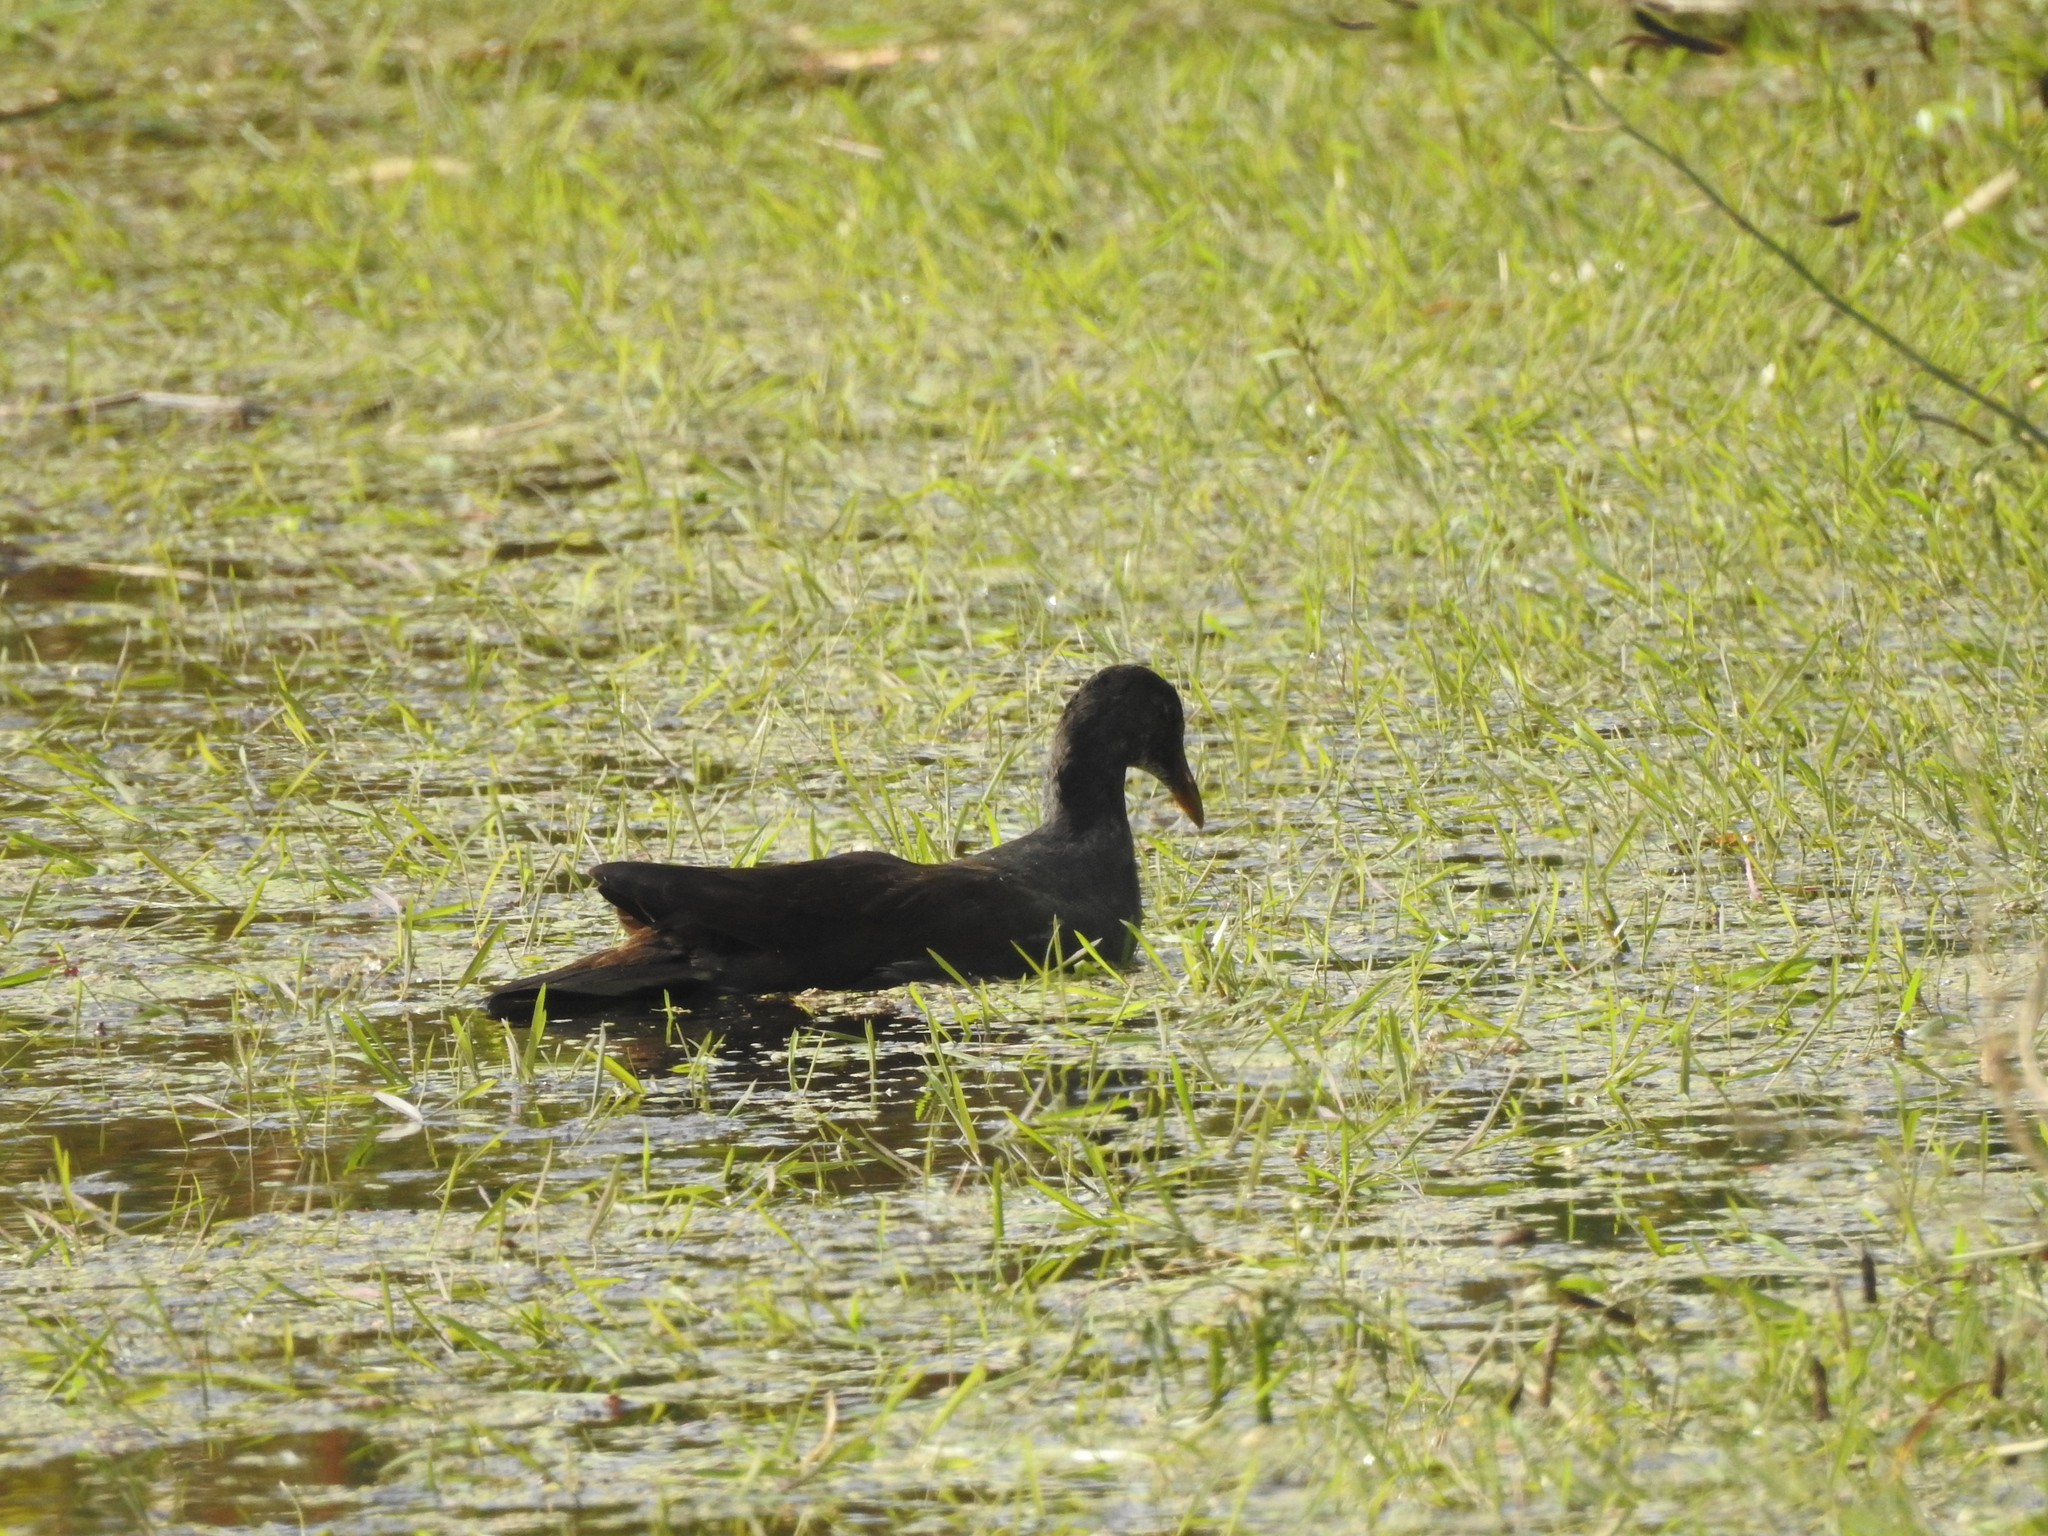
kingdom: Animalia
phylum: Chordata
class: Aves
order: Gruiformes
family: Rallidae
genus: Gallinula
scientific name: Gallinula chloropus
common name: Common moorhen
